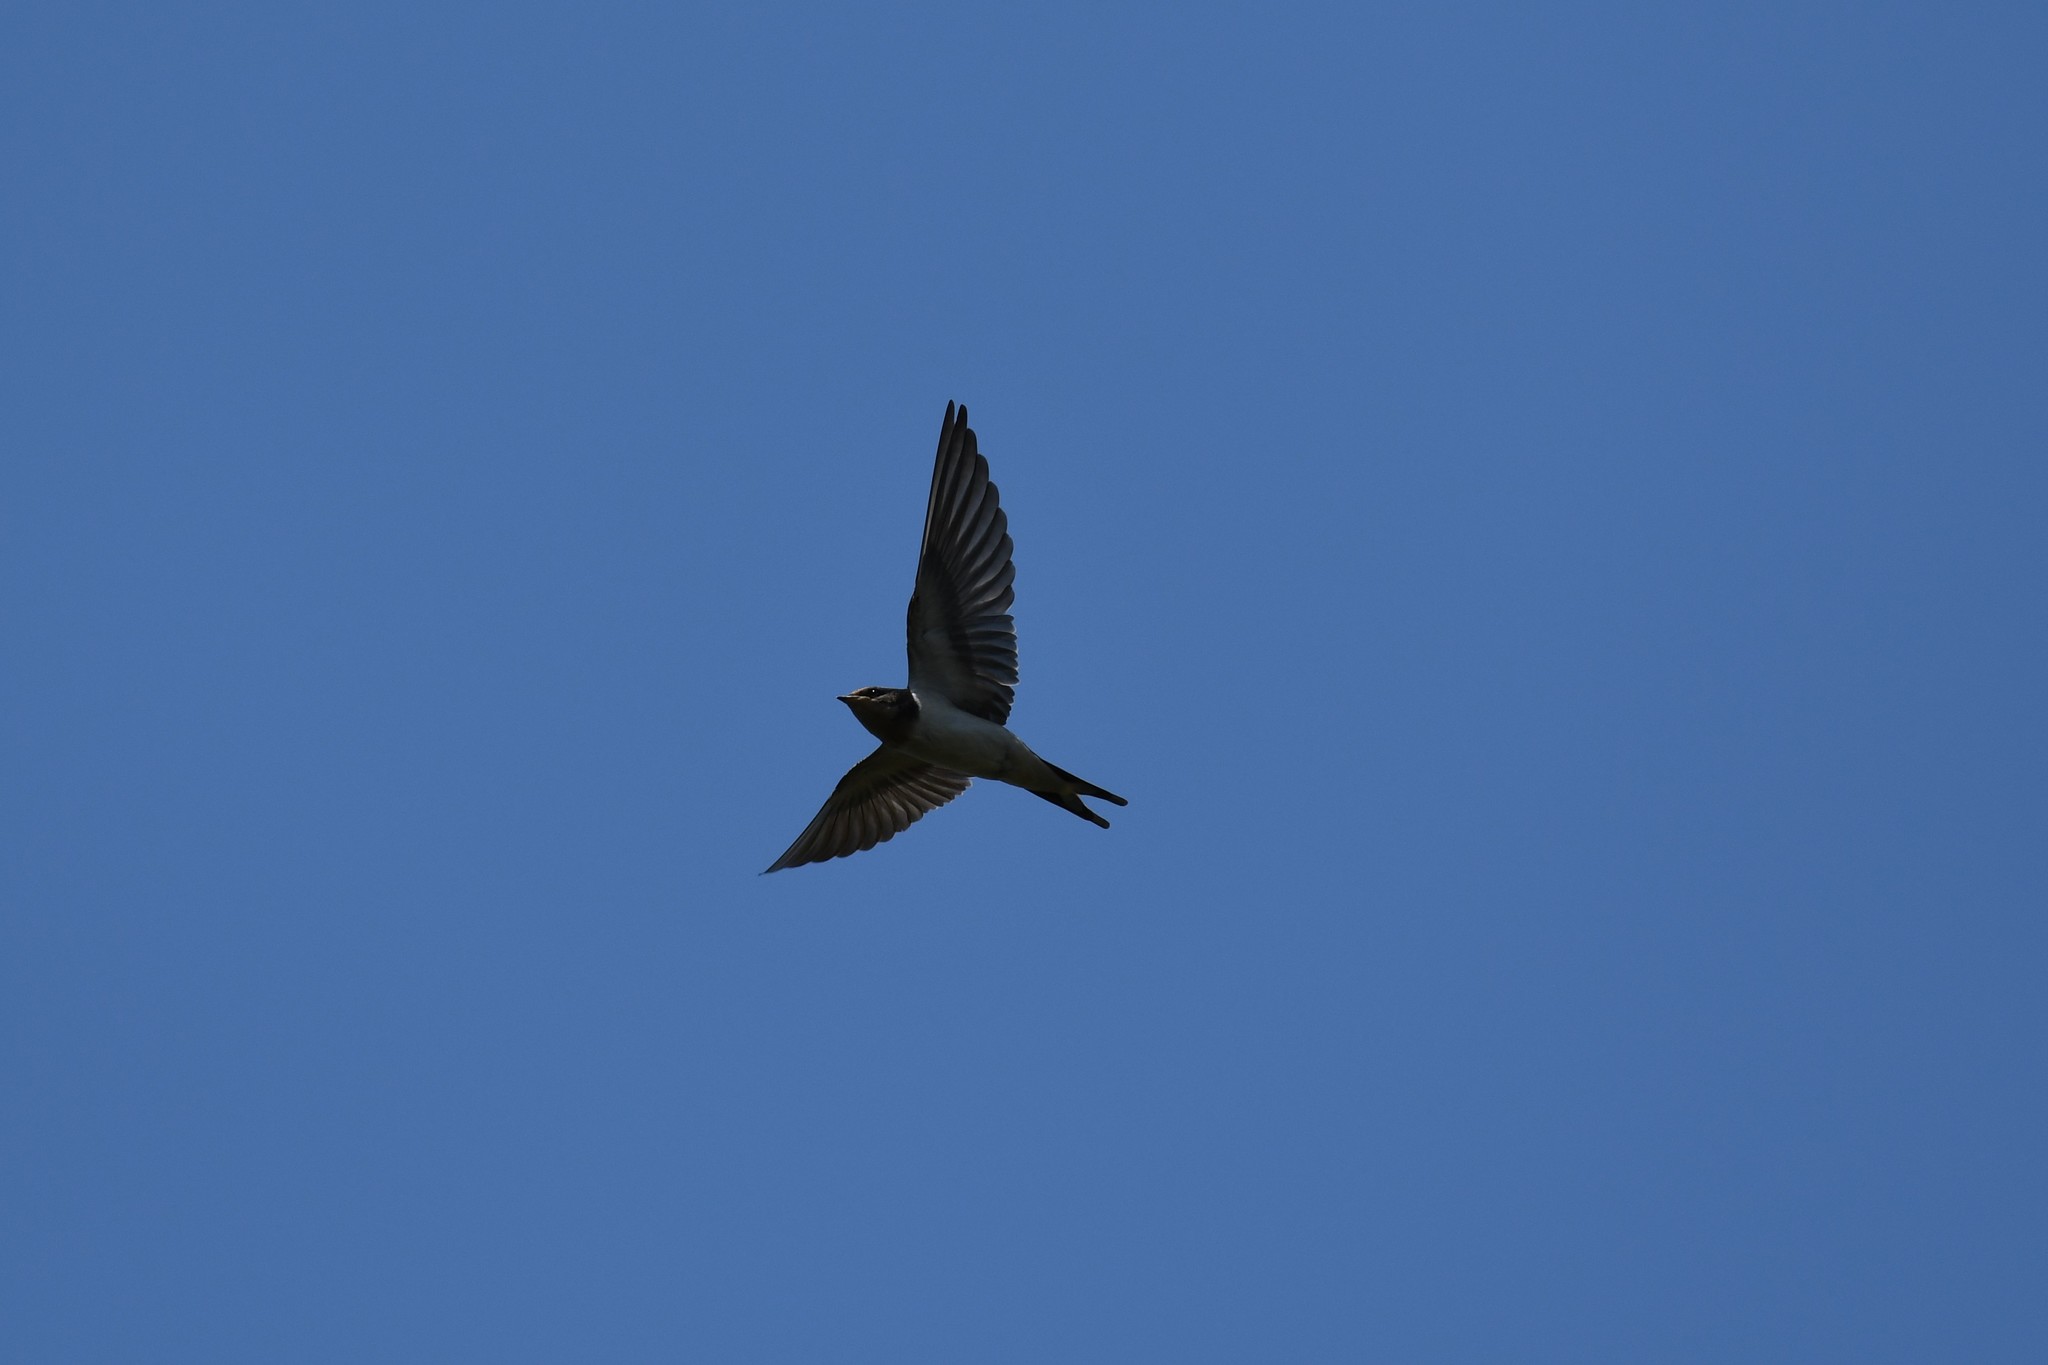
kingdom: Animalia
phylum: Chordata
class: Aves
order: Passeriformes
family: Hirundinidae
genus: Hirundo
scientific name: Hirundo rustica
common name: Barn swallow
